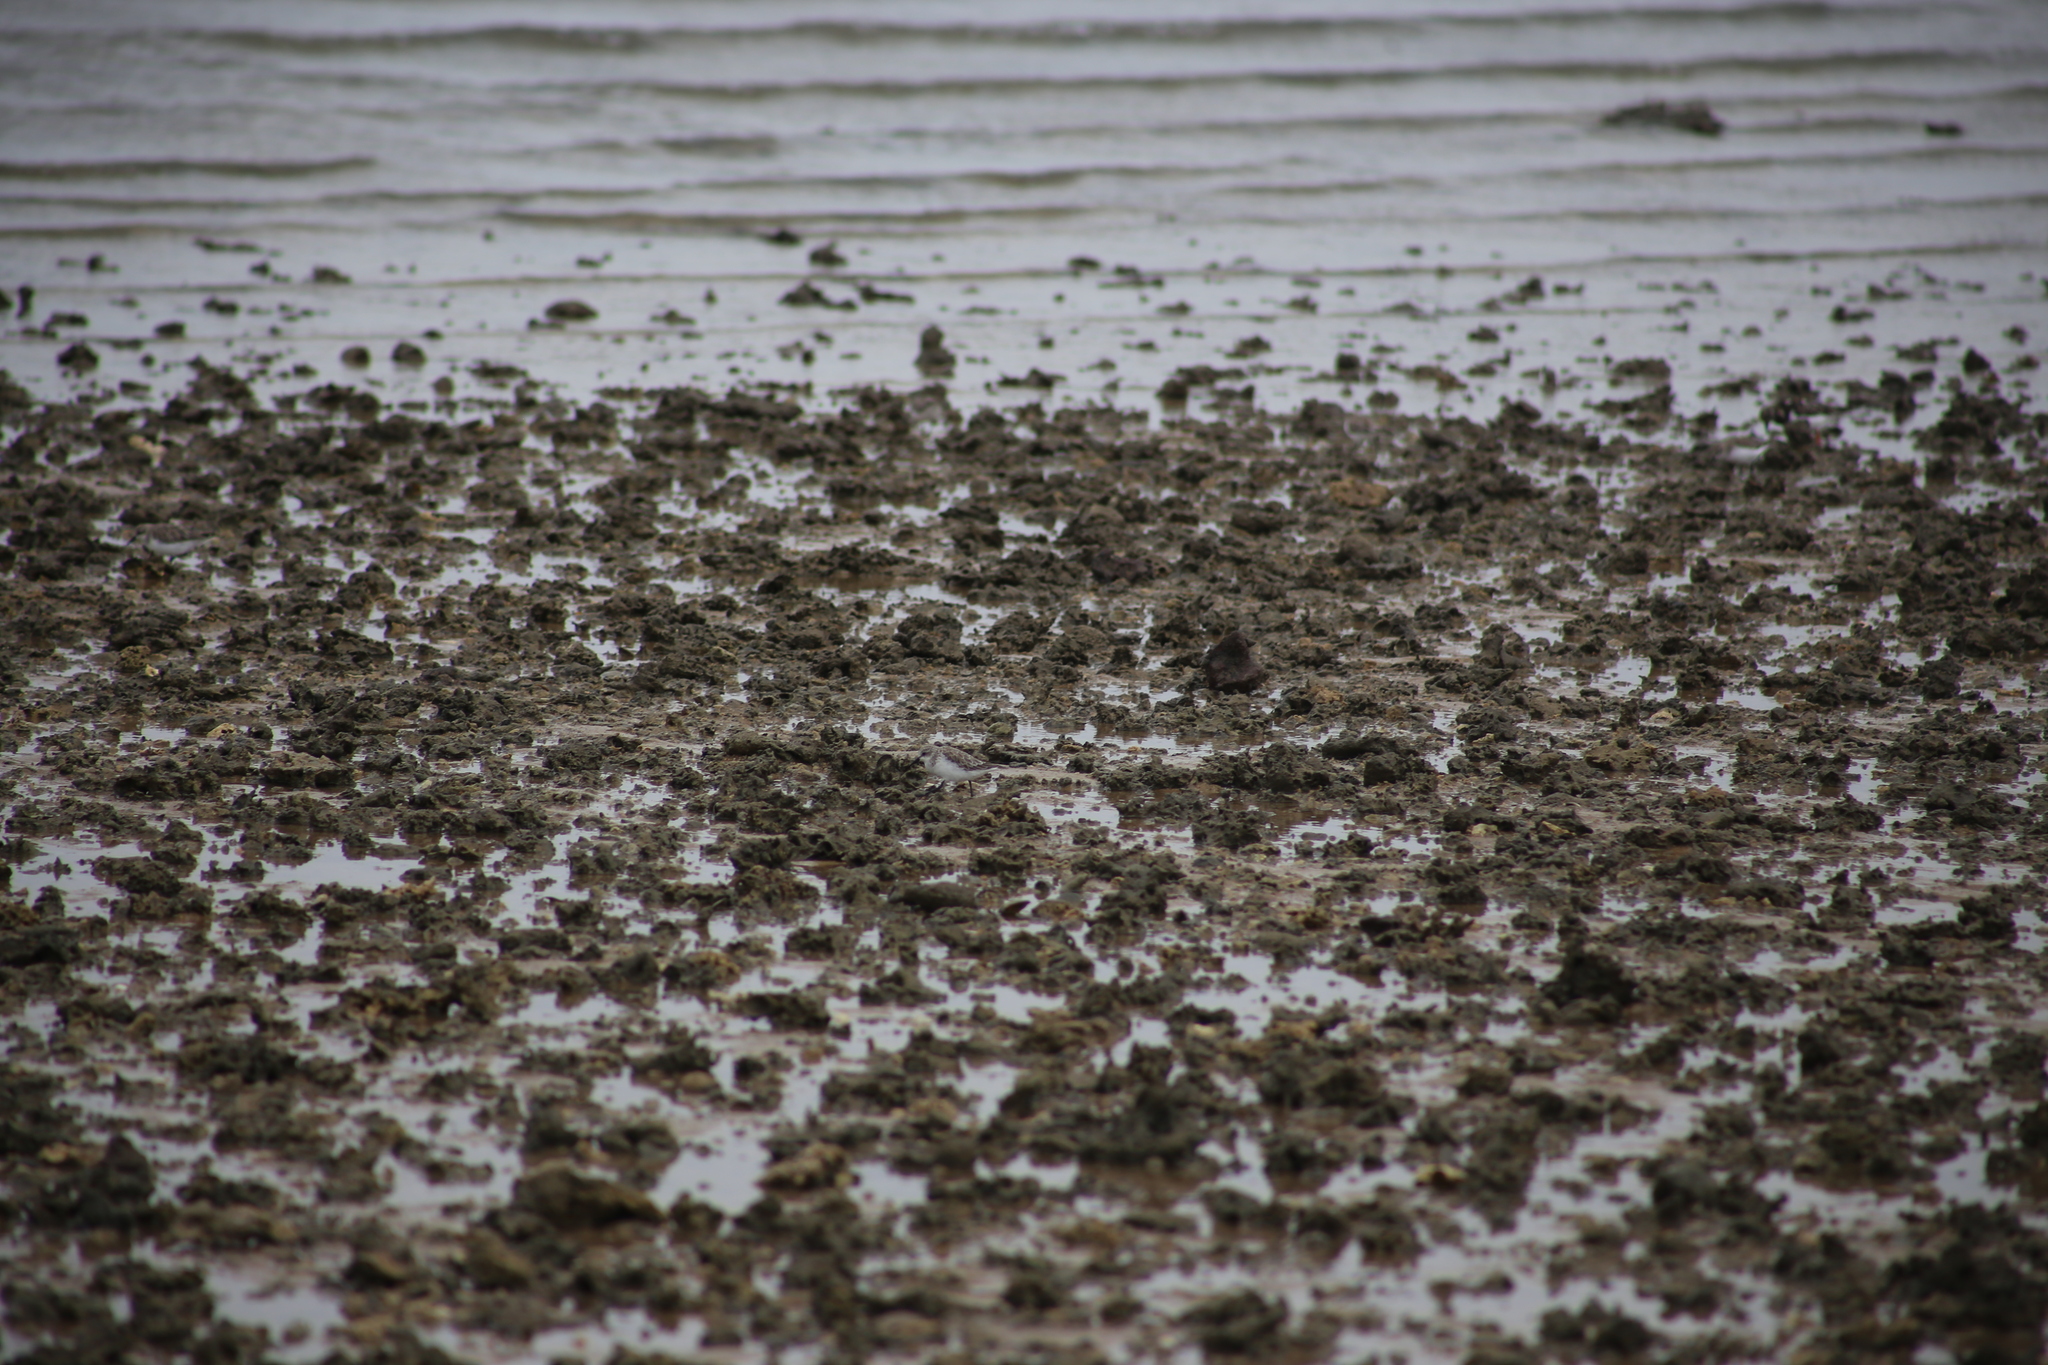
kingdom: Animalia
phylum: Chordata
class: Aves
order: Charadriiformes
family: Scolopacidae
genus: Calidris
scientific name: Calidris ruficollis
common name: Red-necked stint
